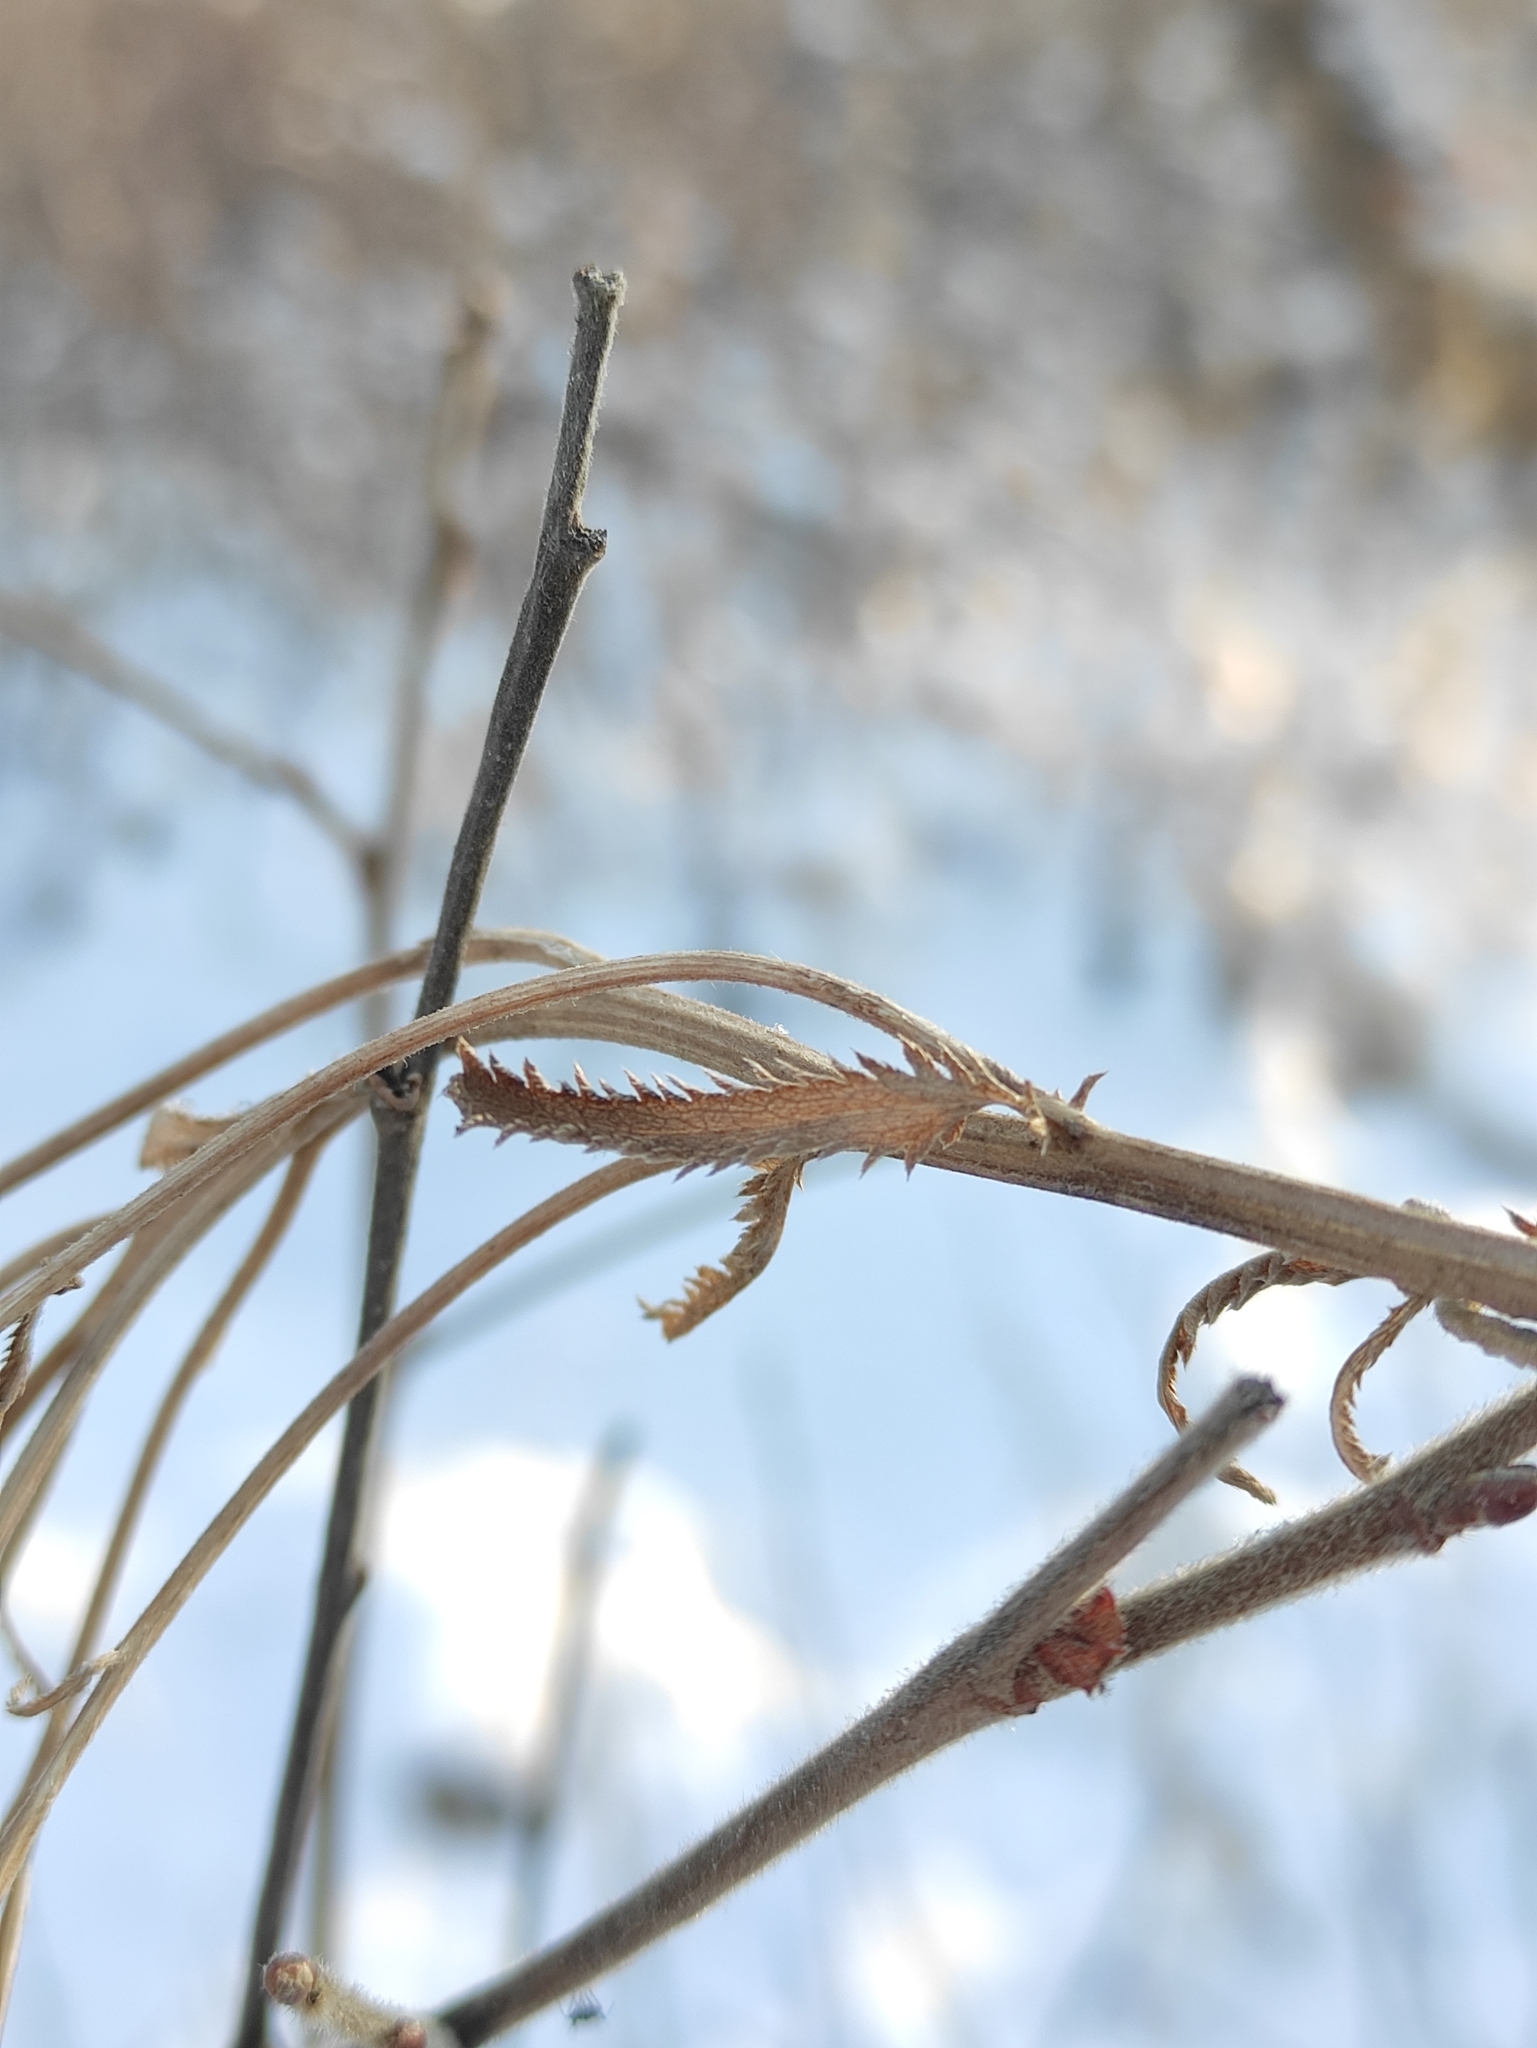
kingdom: Plantae
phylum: Tracheophyta
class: Magnoliopsida
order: Asterales
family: Asteraceae
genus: Achillea
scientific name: Achillea alpina
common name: Siberian yarrow
